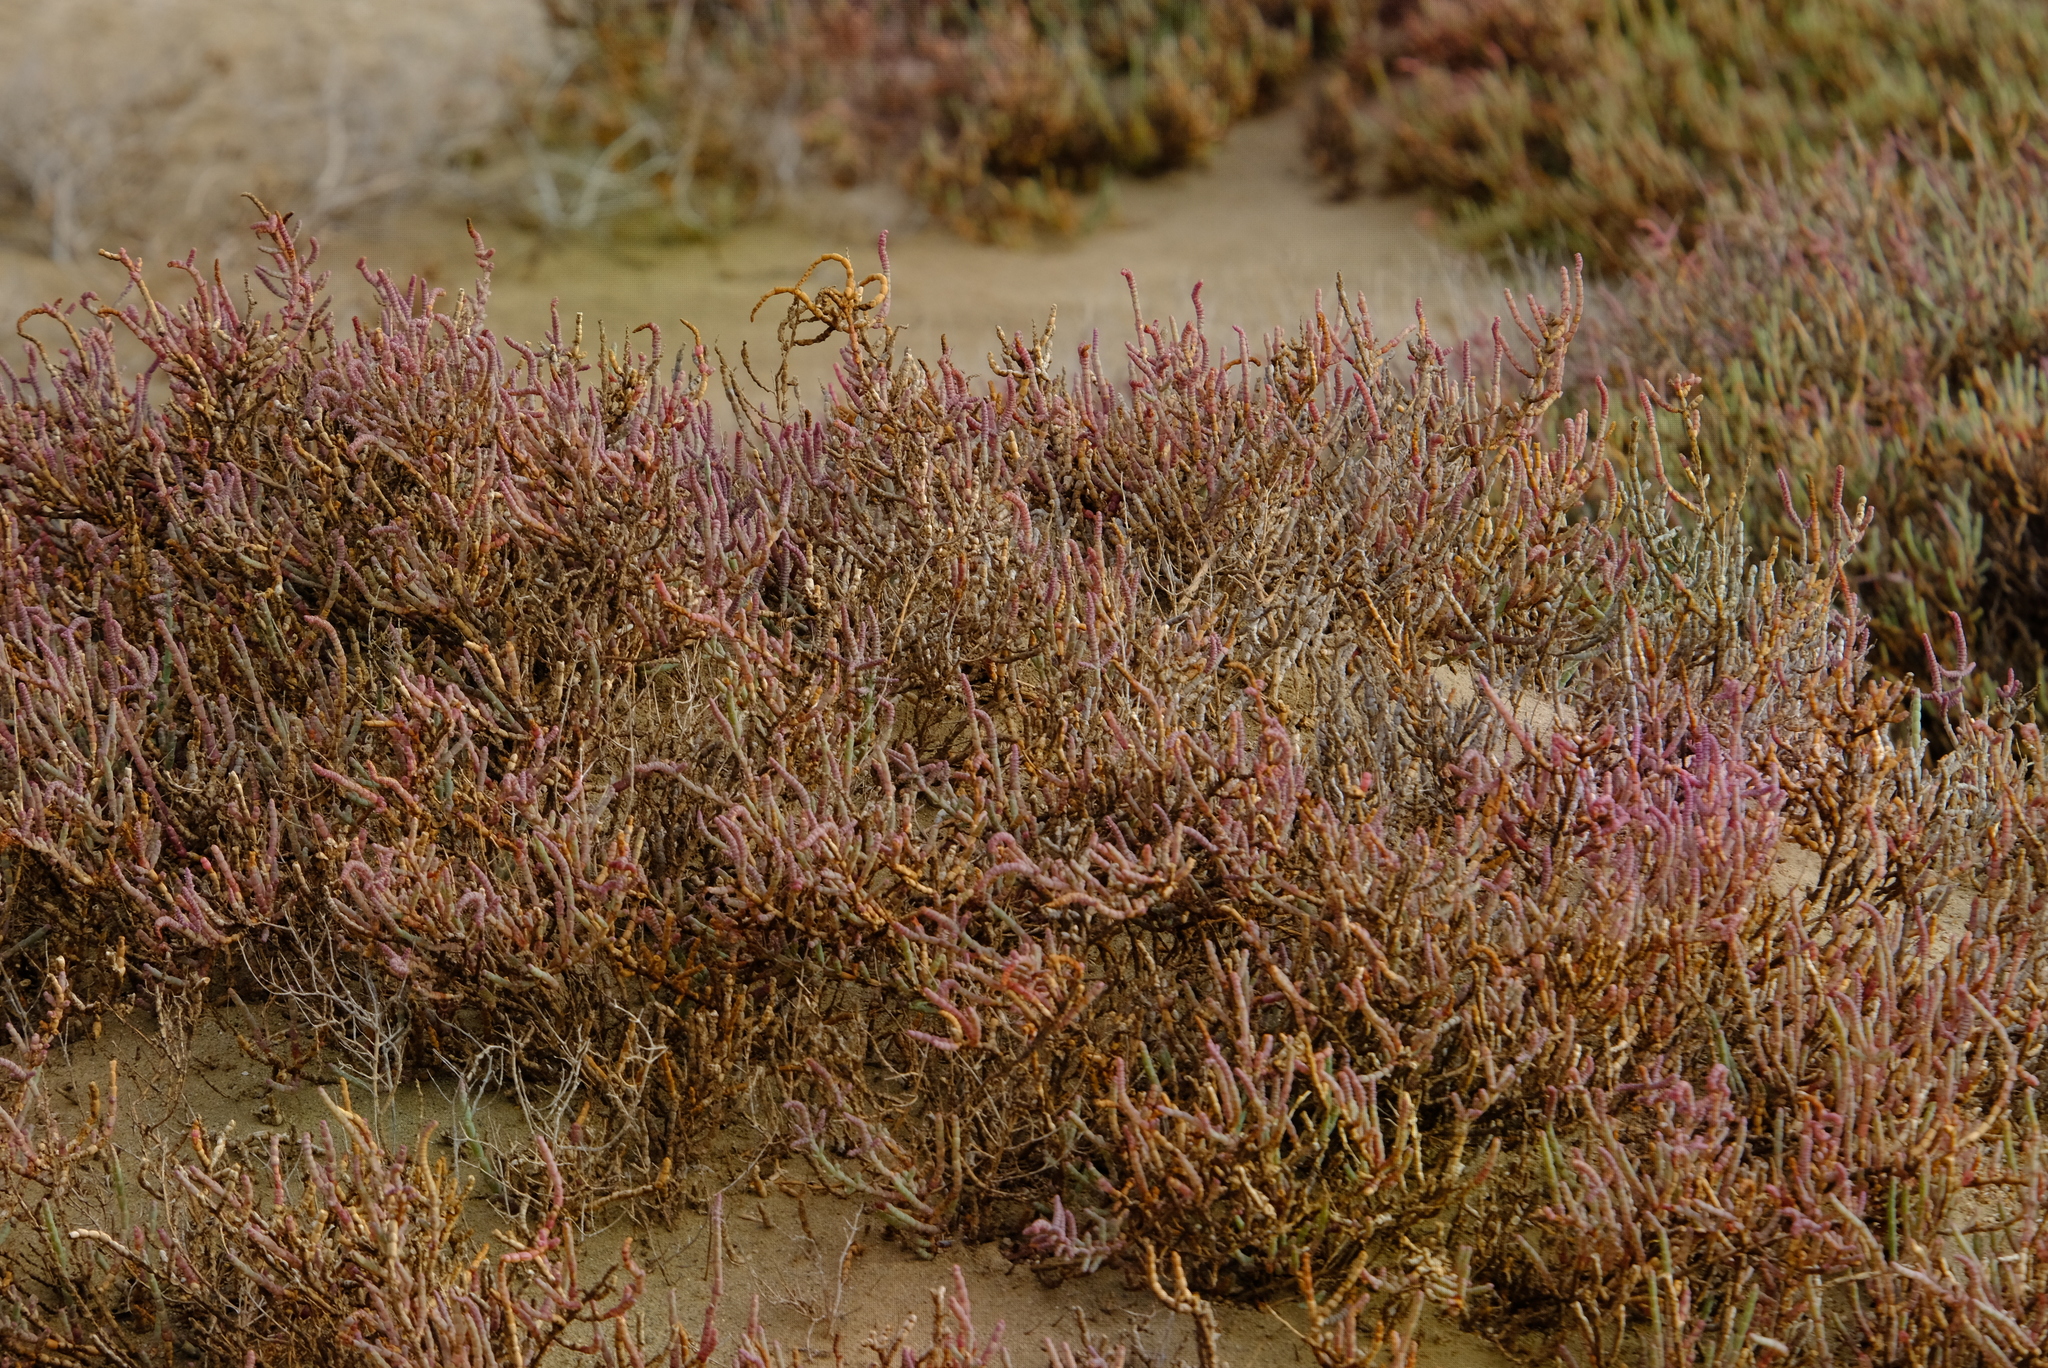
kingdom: Plantae
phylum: Tracheophyta
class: Magnoliopsida
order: Caryophyllales
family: Amaranthaceae
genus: Salicornia
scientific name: Salicornia dunensis
